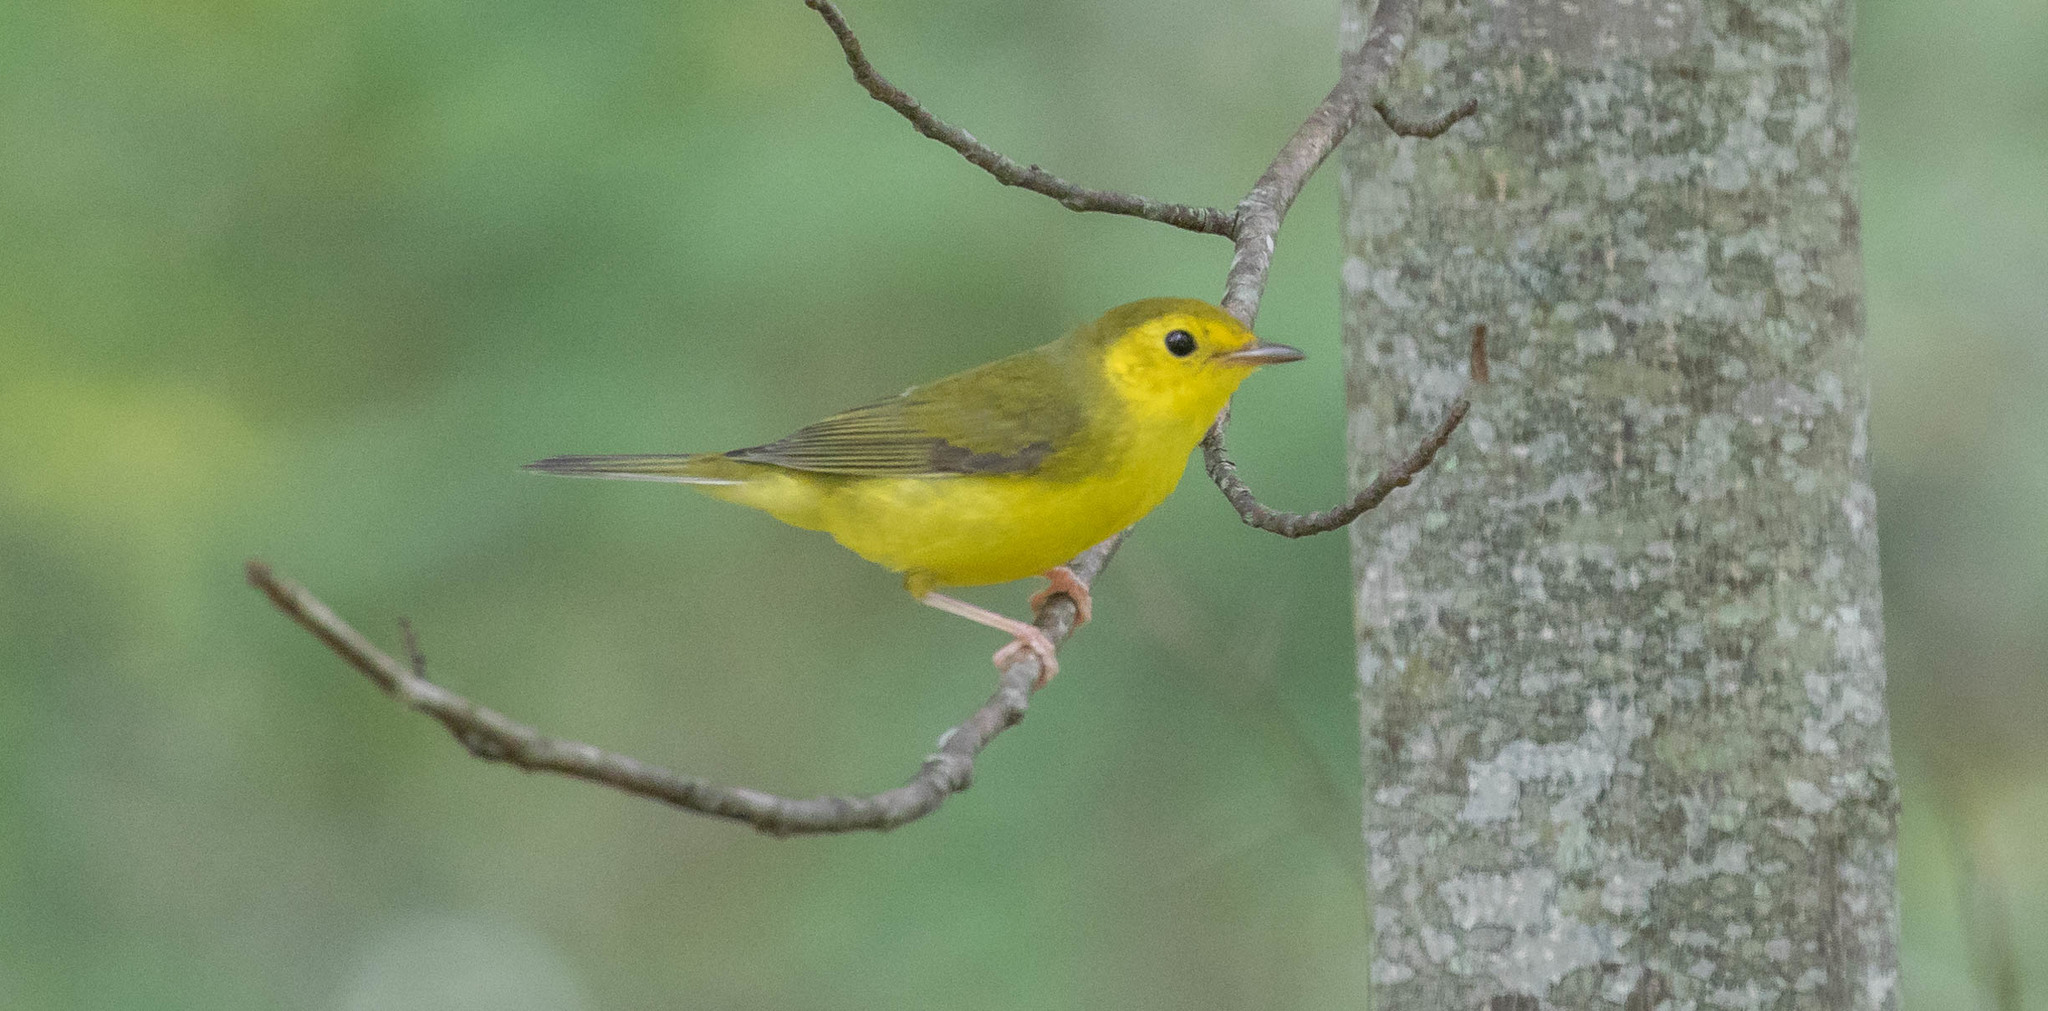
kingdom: Animalia
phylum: Chordata
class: Aves
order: Passeriformes
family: Parulidae
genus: Setophaga
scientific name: Setophaga citrina
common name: Hooded warbler
